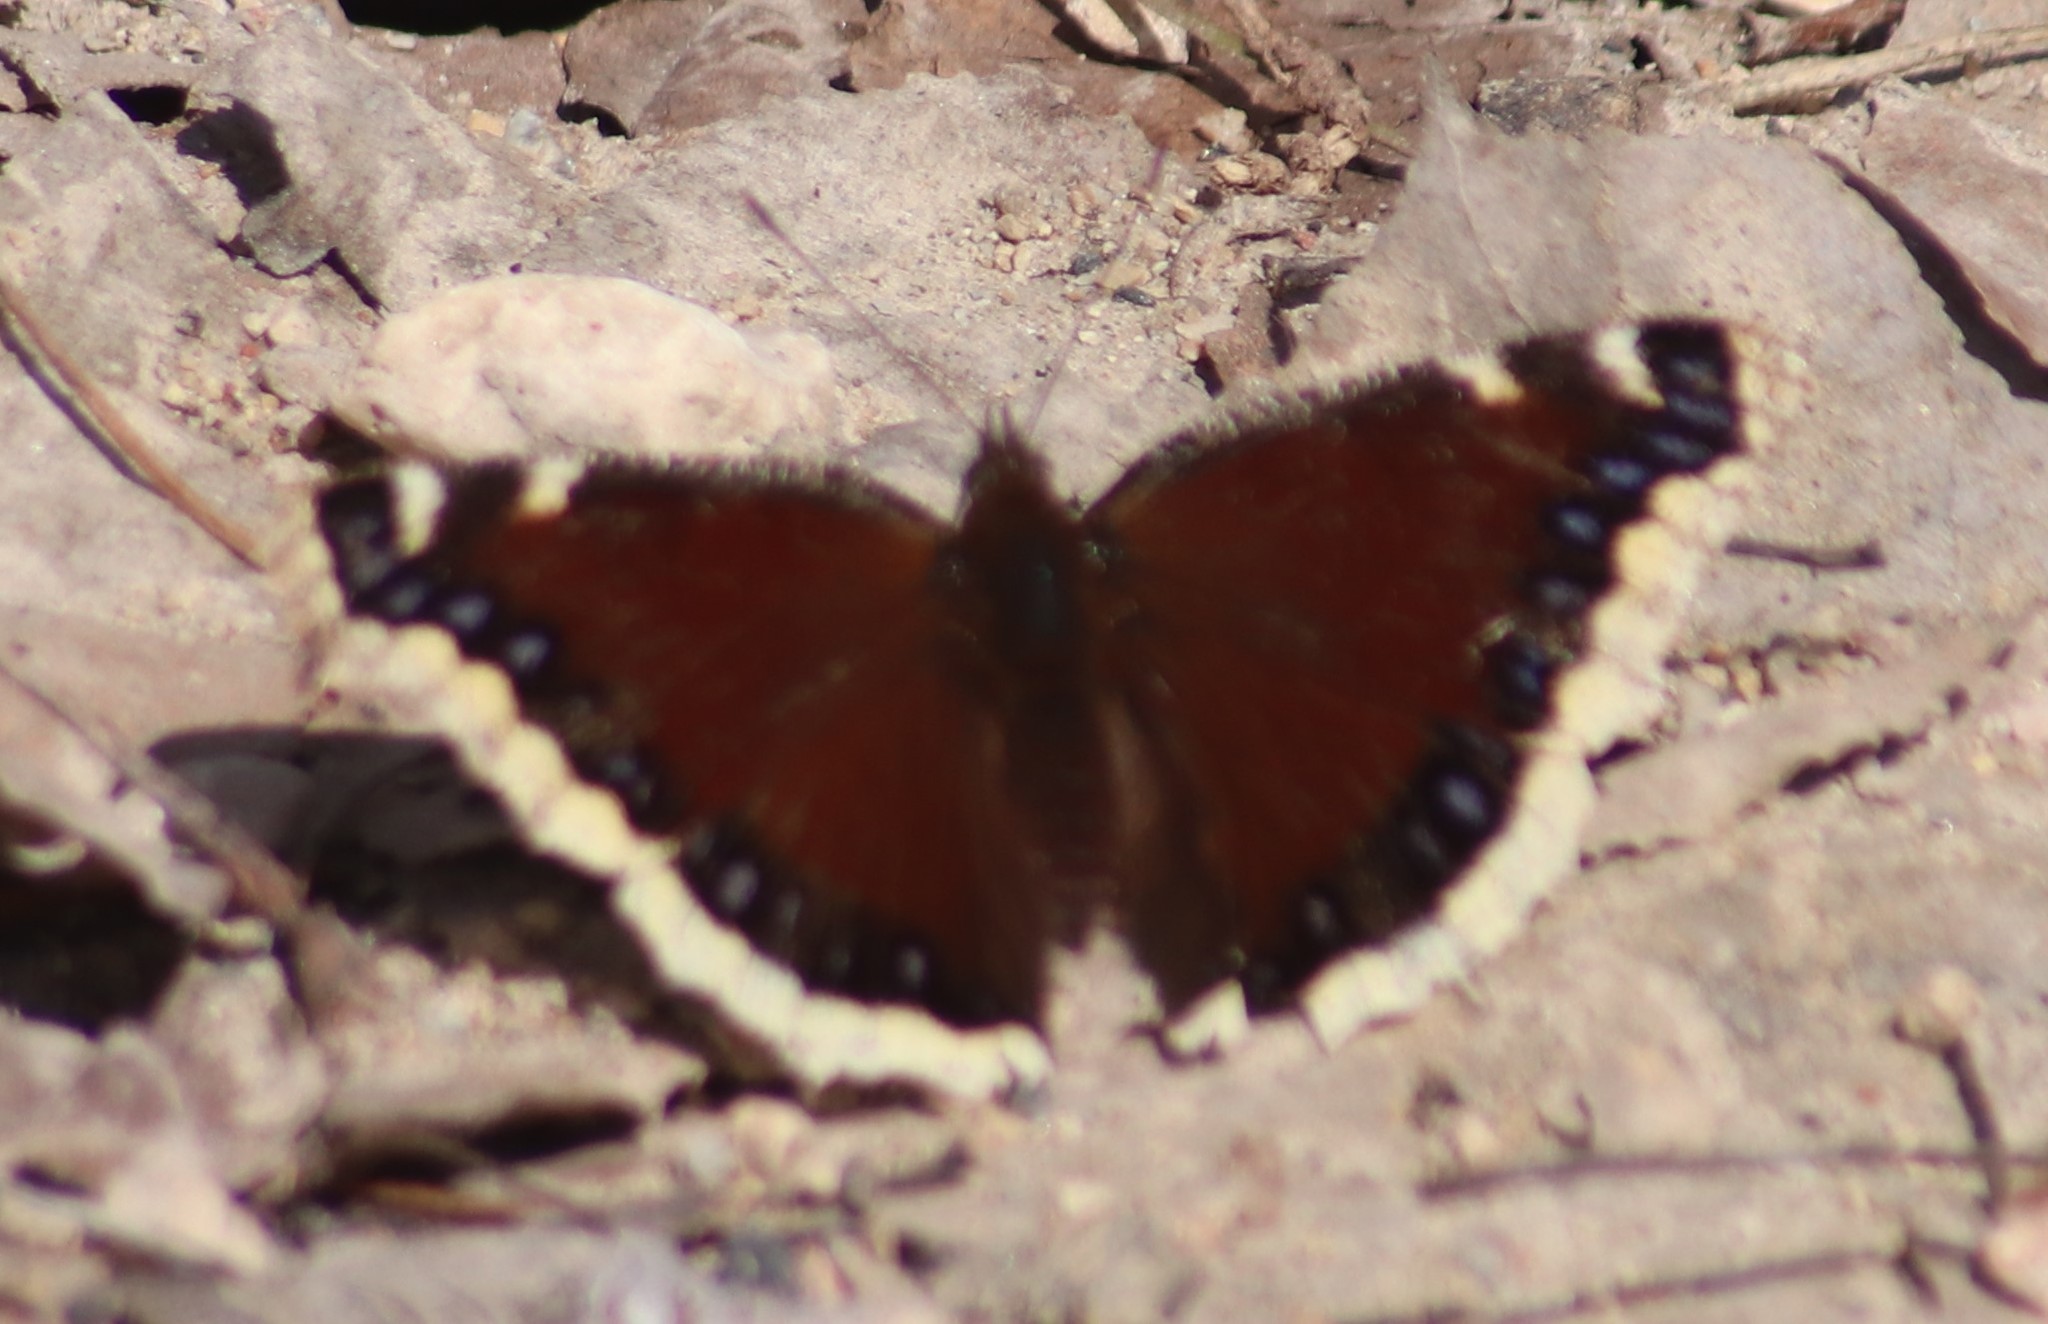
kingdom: Animalia
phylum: Arthropoda
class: Insecta
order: Lepidoptera
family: Nymphalidae
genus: Nymphalis
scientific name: Nymphalis antiopa
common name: Camberwell beauty
